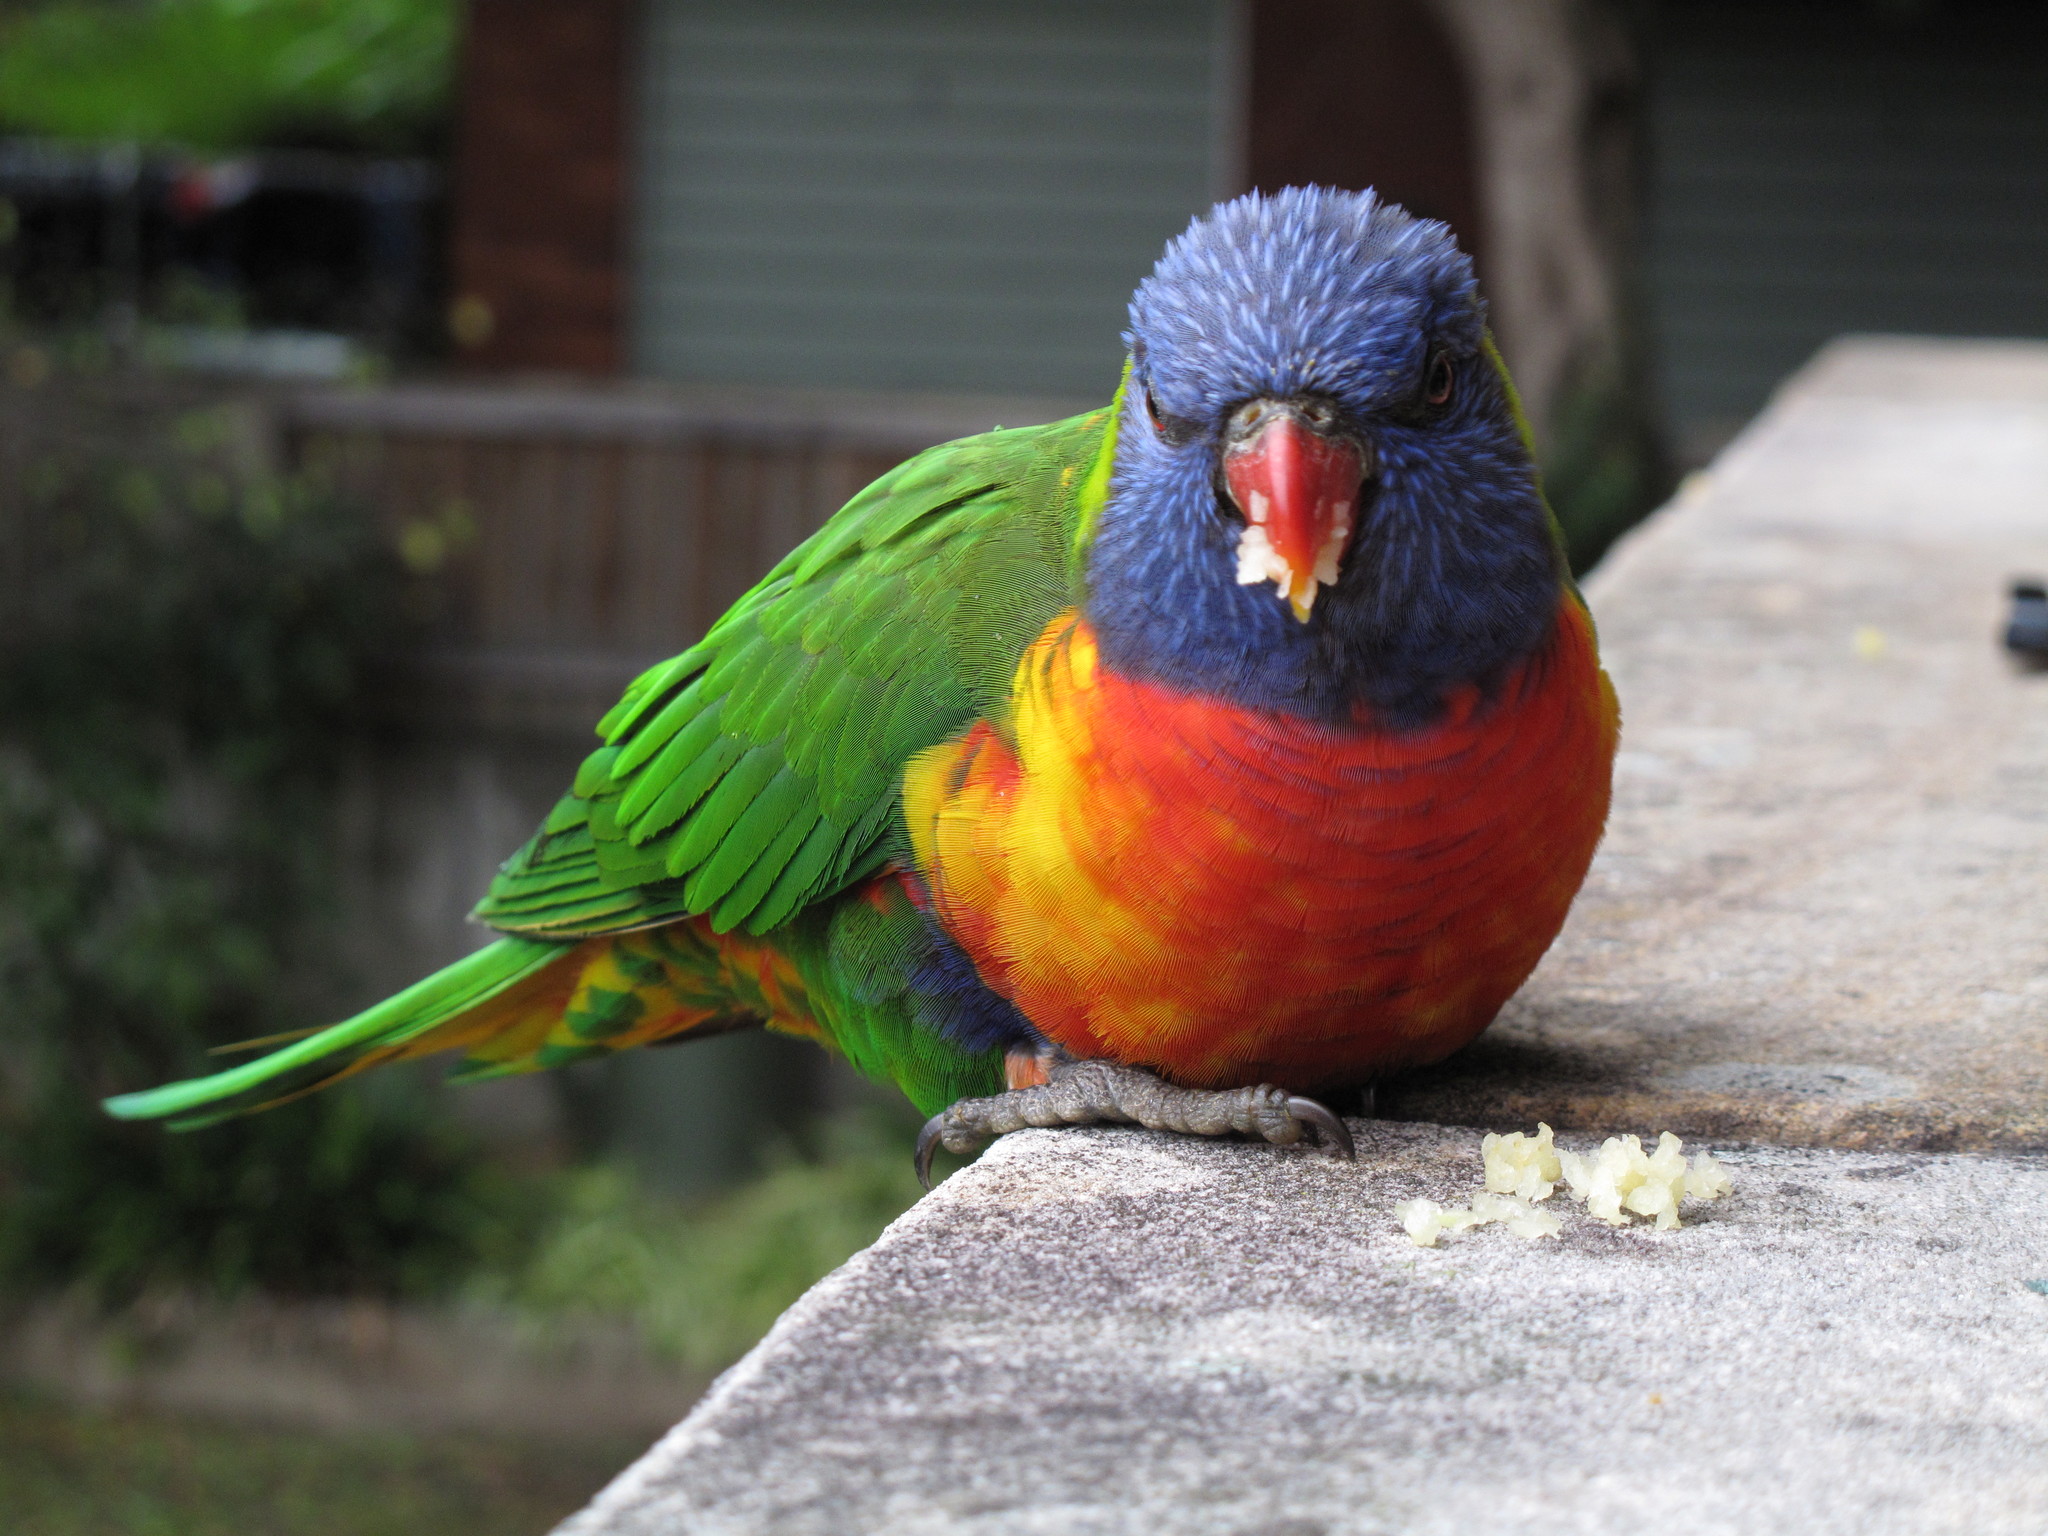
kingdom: Animalia
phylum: Chordata
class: Aves
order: Psittaciformes
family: Psittacidae
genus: Trichoglossus
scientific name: Trichoglossus haematodus
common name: Coconut lorikeet
